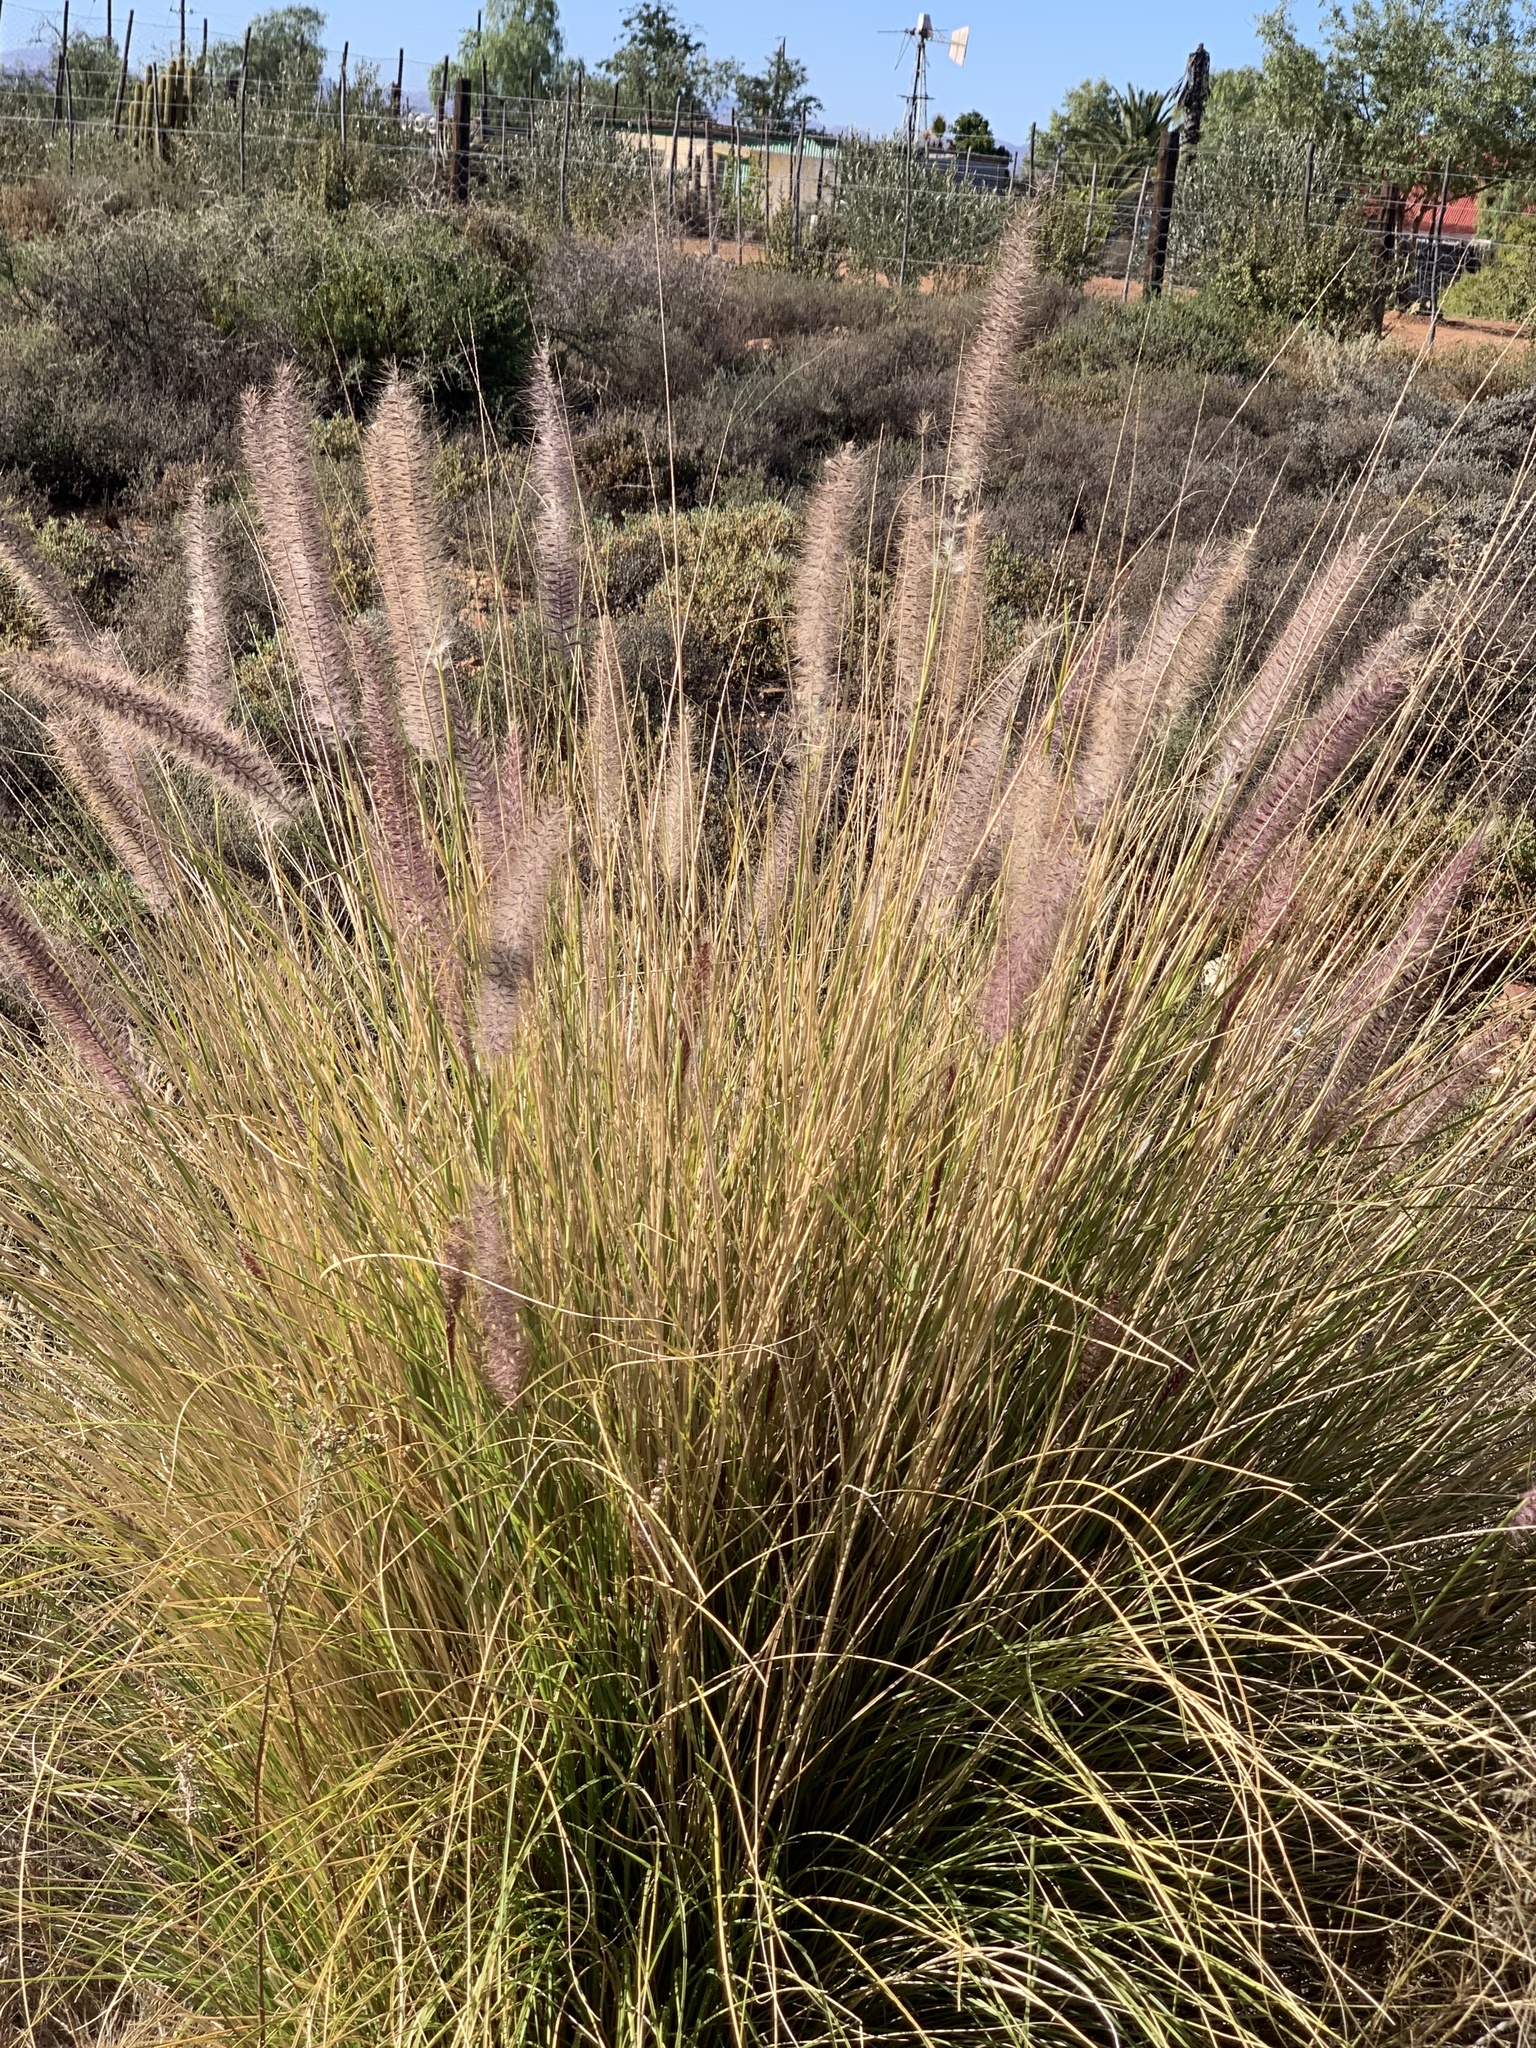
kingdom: Plantae
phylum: Tracheophyta
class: Liliopsida
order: Poales
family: Poaceae
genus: Cenchrus
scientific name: Cenchrus setaceus
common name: Crimson fountaingrass
